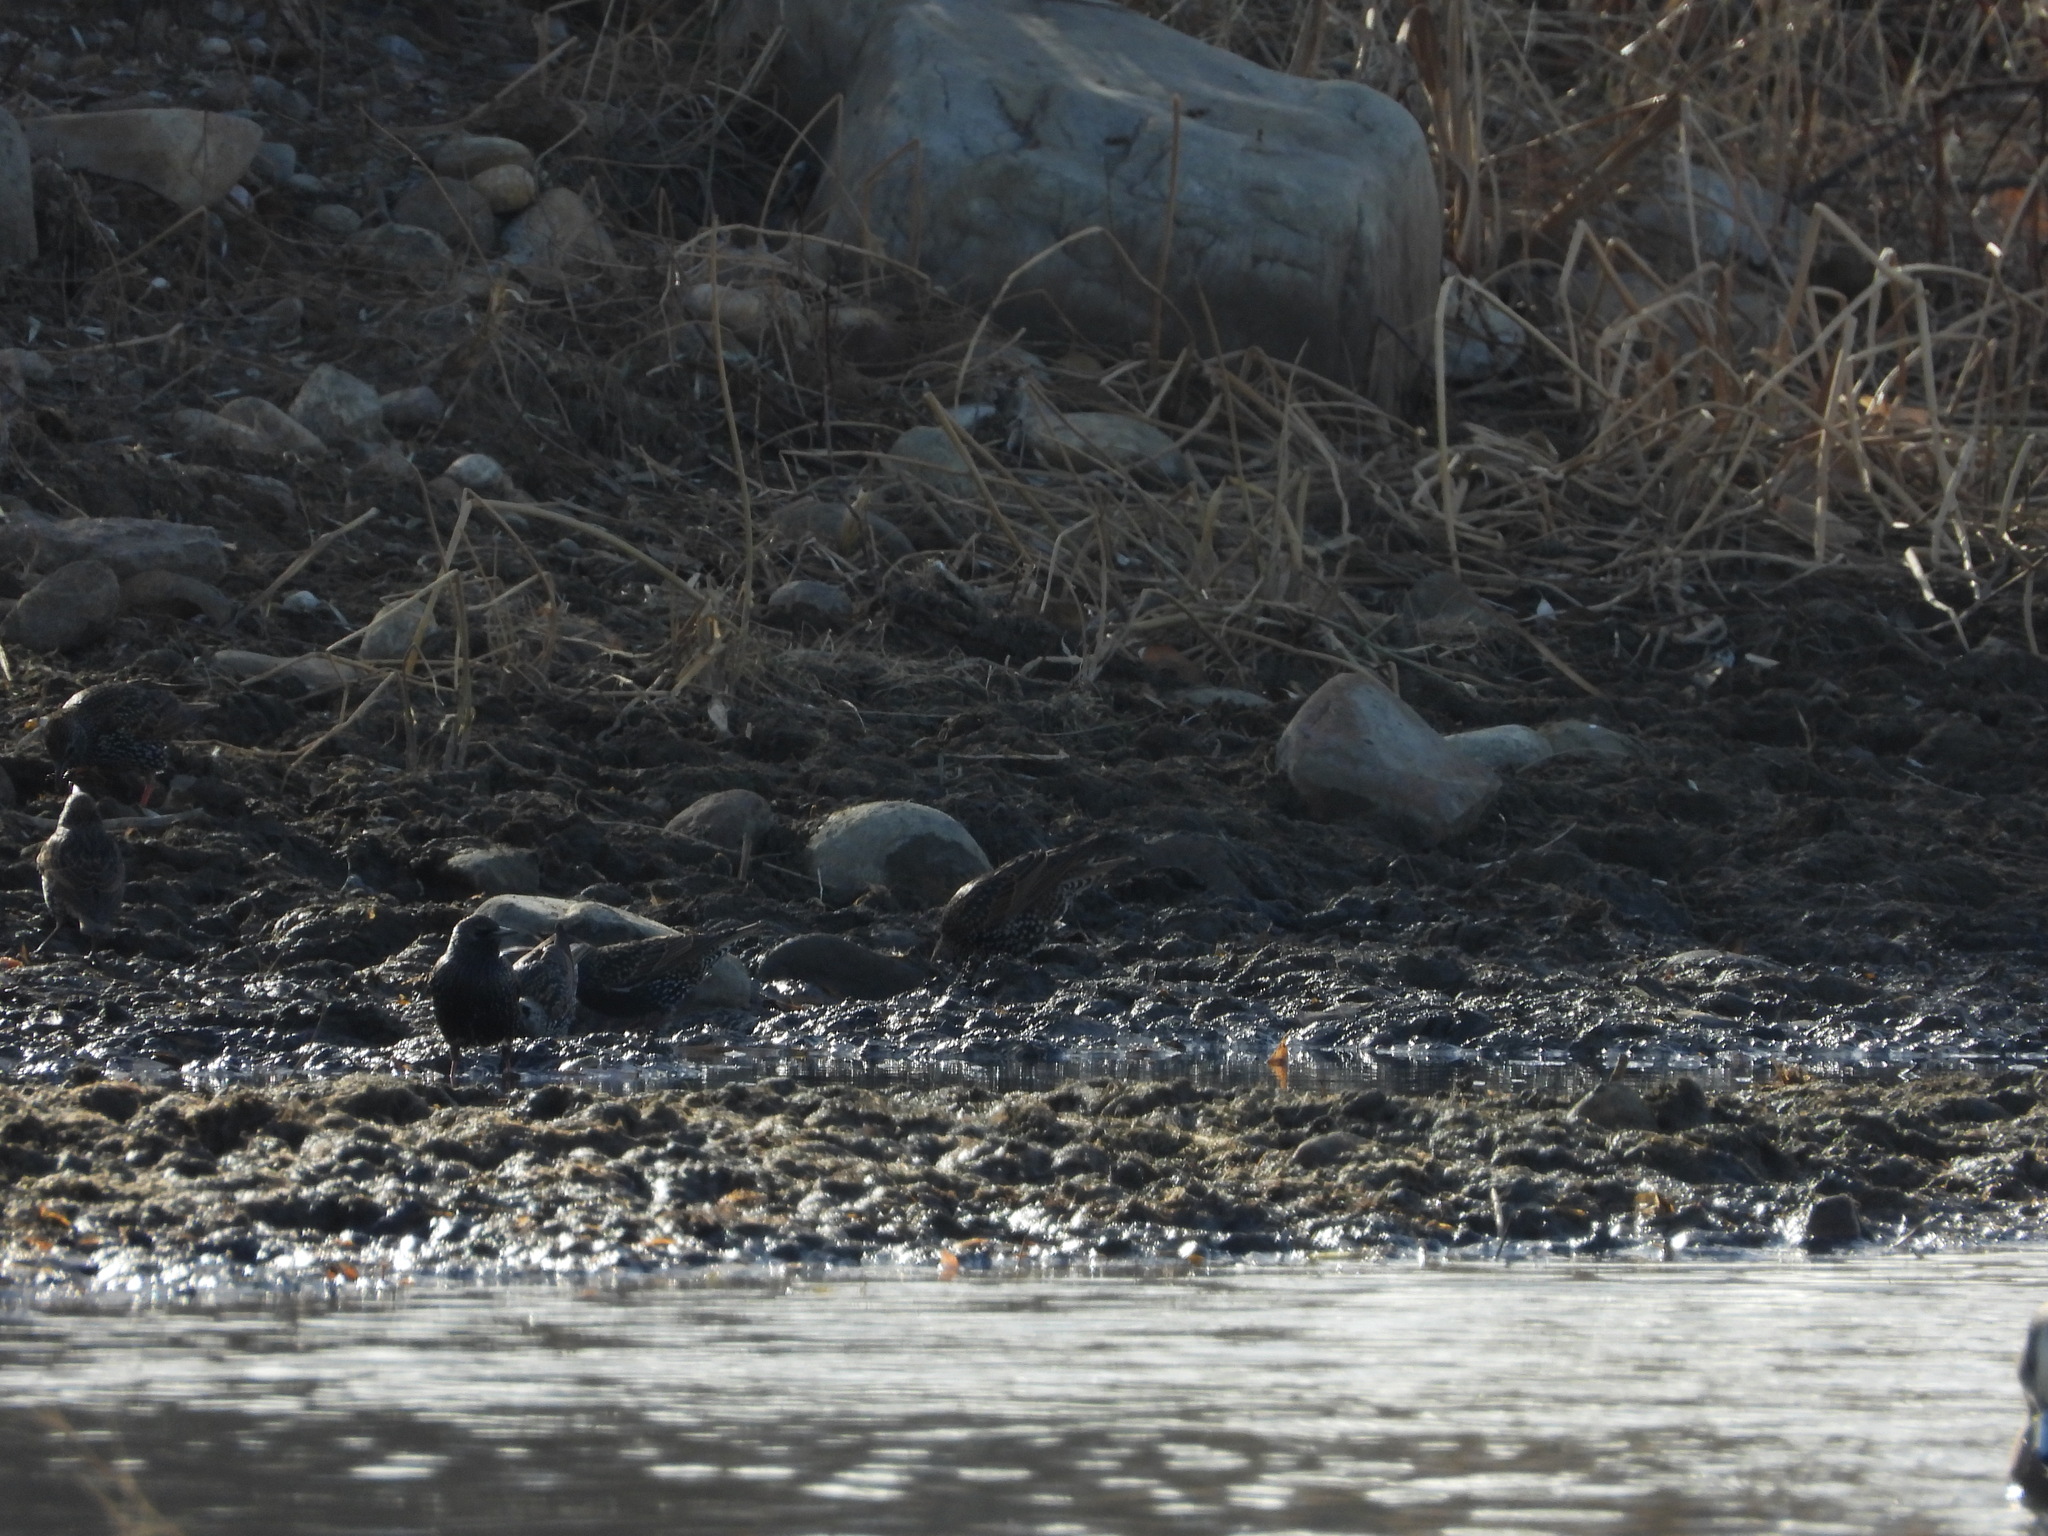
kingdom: Animalia
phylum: Chordata
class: Aves
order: Passeriformes
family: Sturnidae
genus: Sturnus
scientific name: Sturnus vulgaris
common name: Common starling
